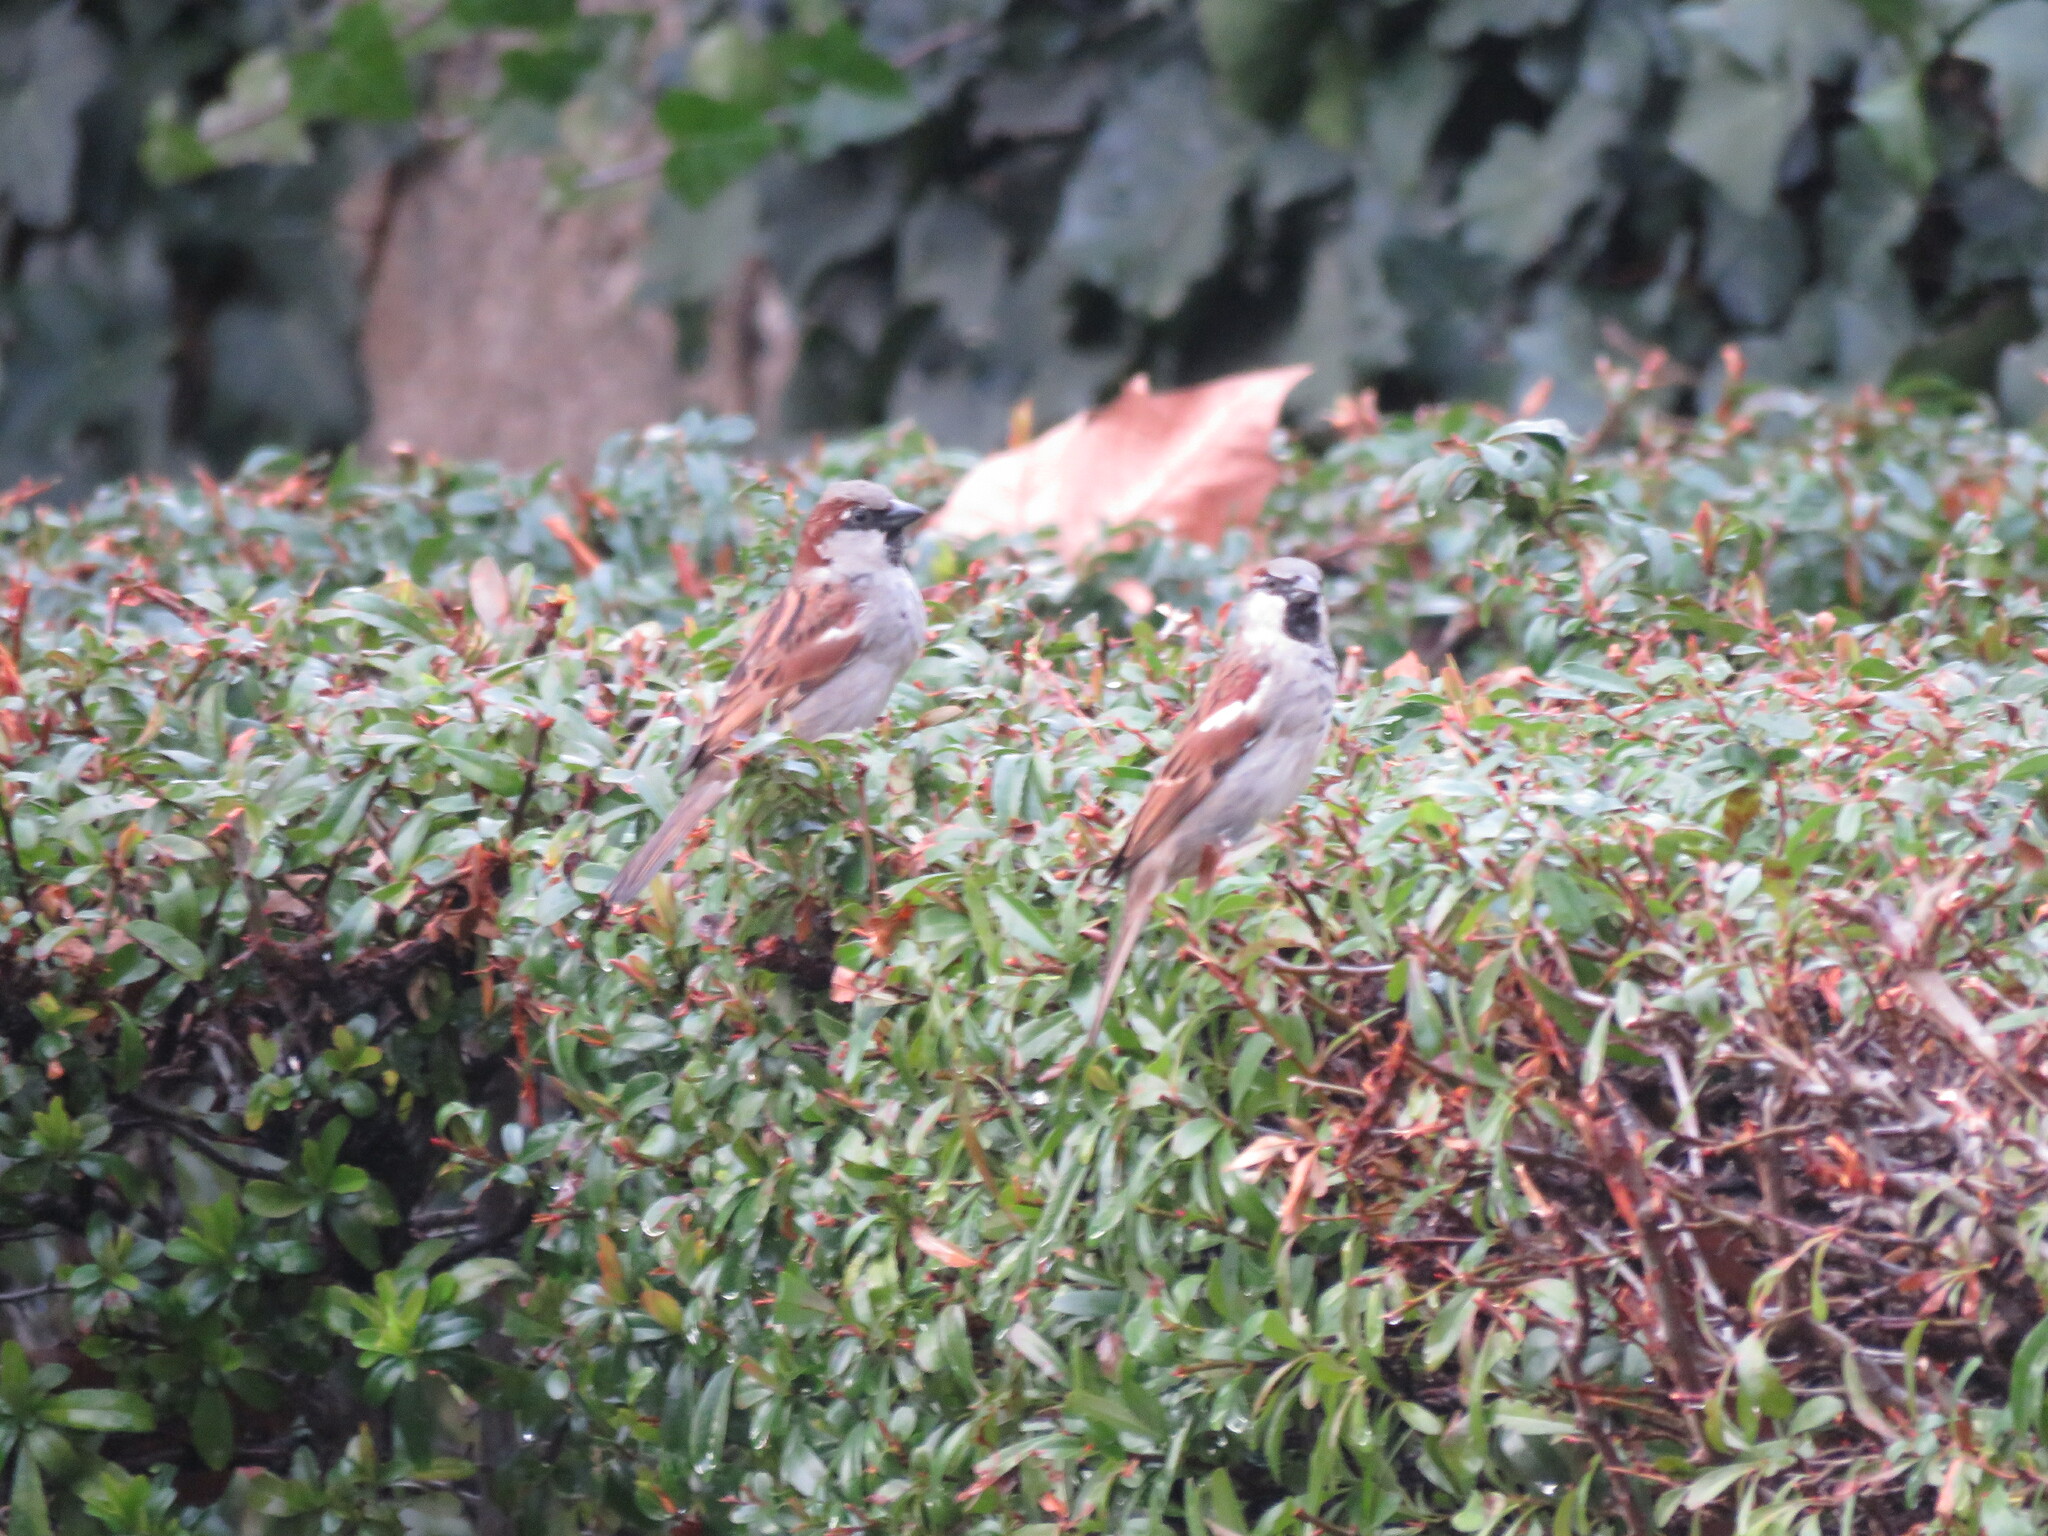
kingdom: Animalia
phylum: Chordata
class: Aves
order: Passeriformes
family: Passeridae
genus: Passer
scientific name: Passer domesticus
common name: House sparrow
